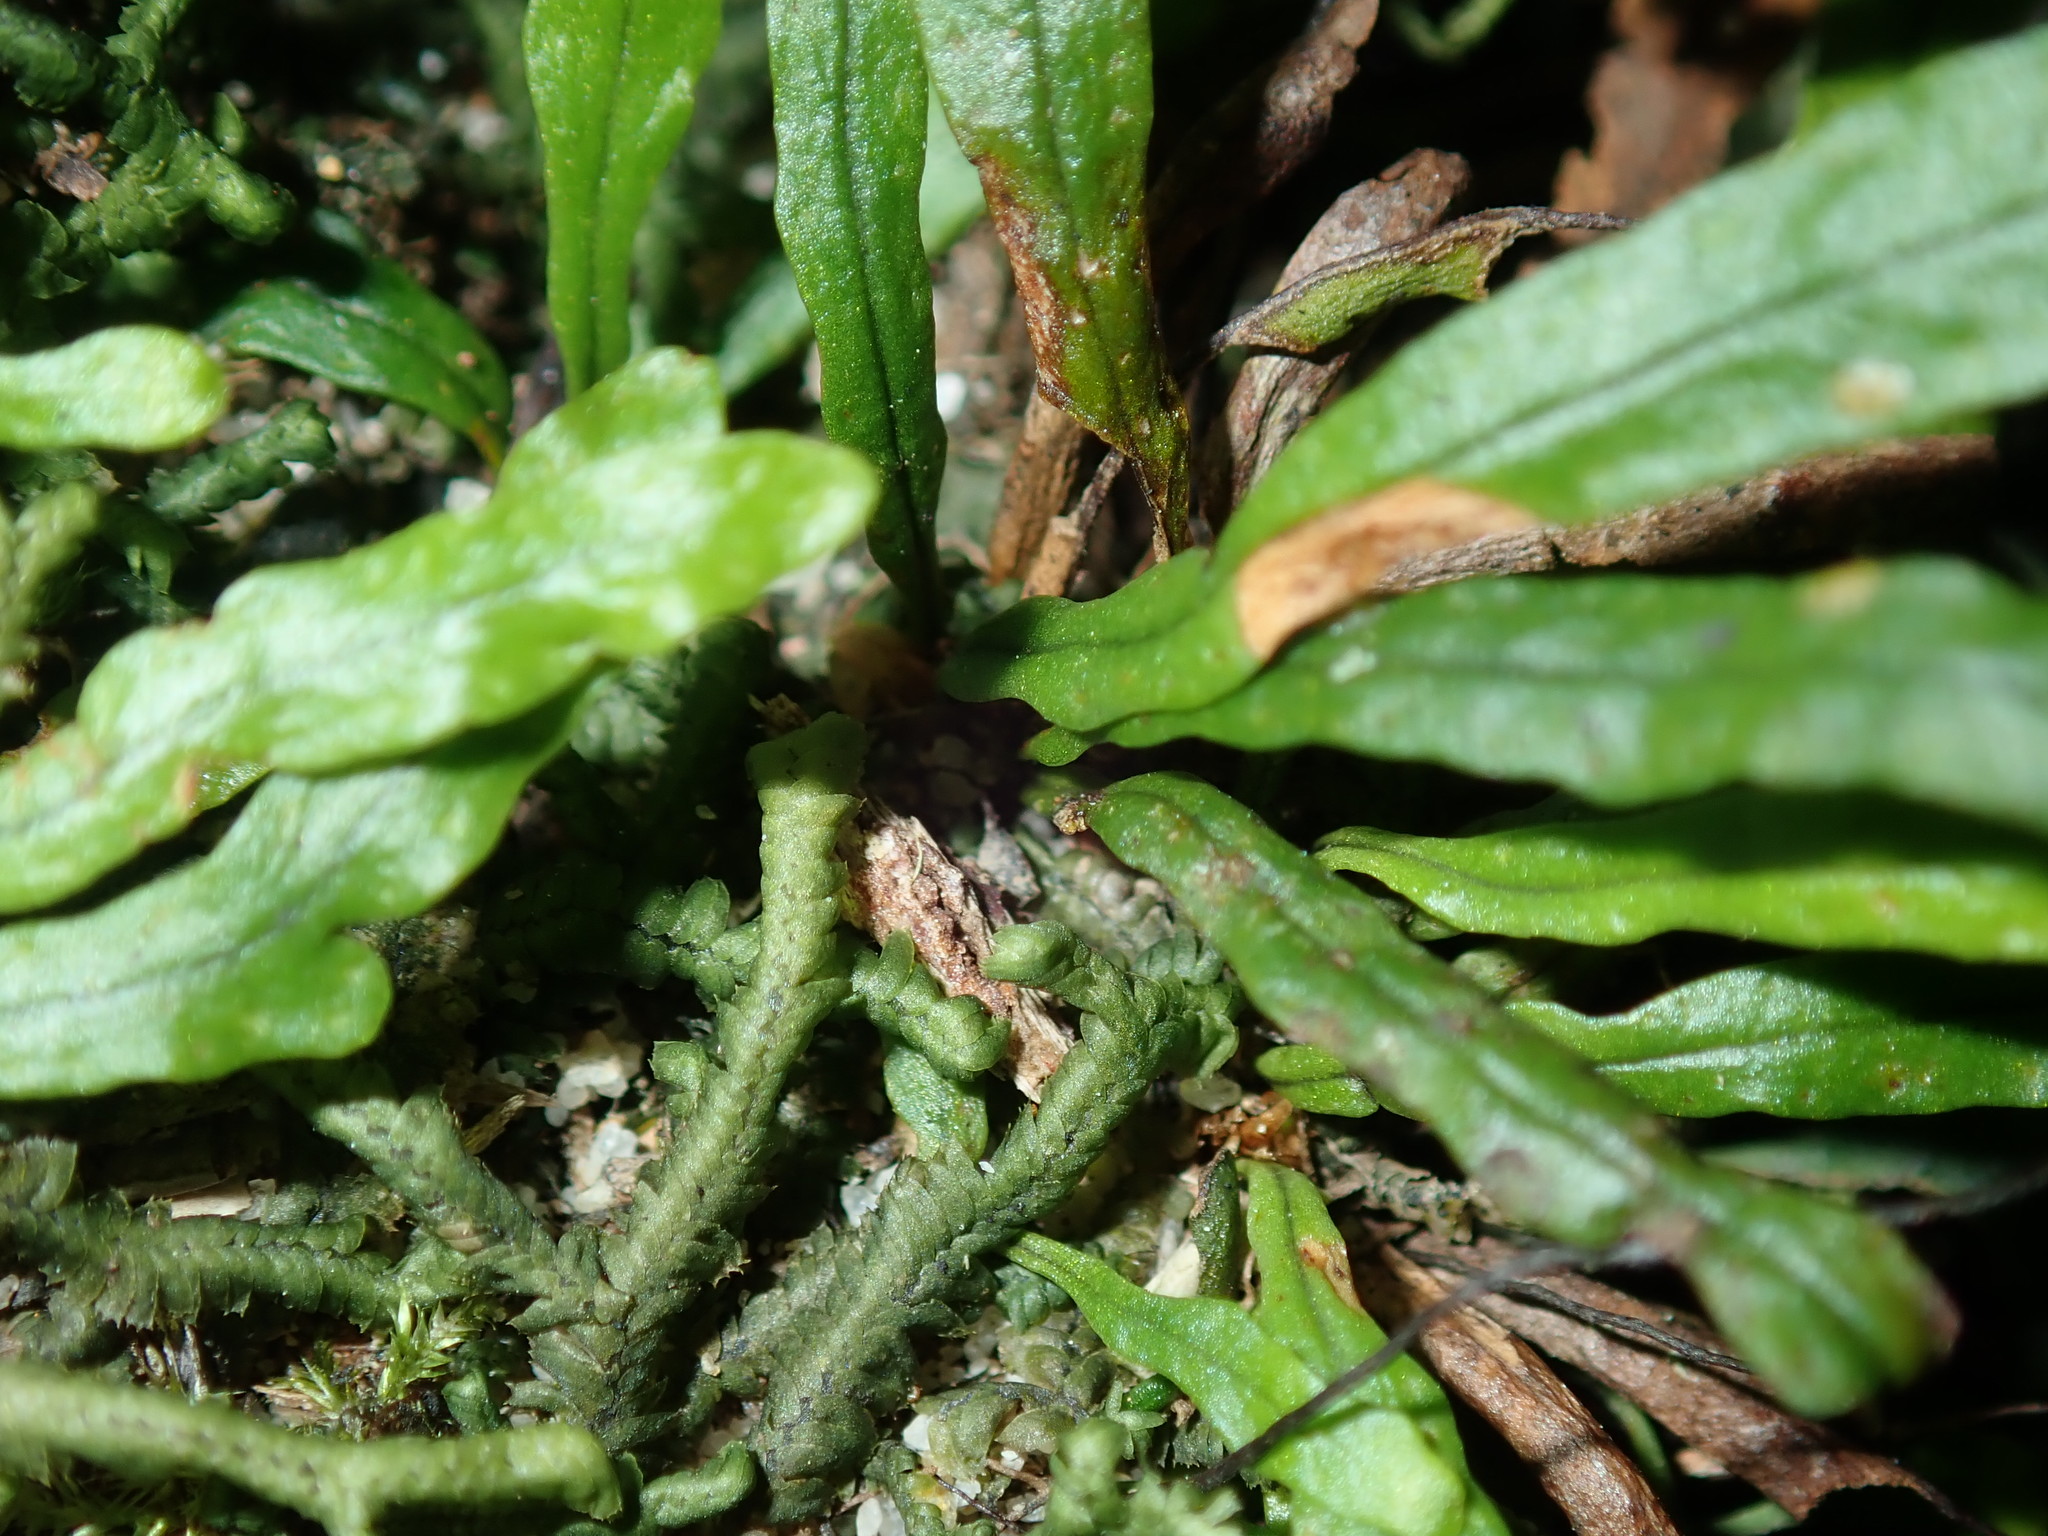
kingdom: Plantae
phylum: Tracheophyta
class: Polypodiopsida
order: Polypodiales
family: Polypodiaceae
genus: Notogrammitis
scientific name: Notogrammitis billardierei
